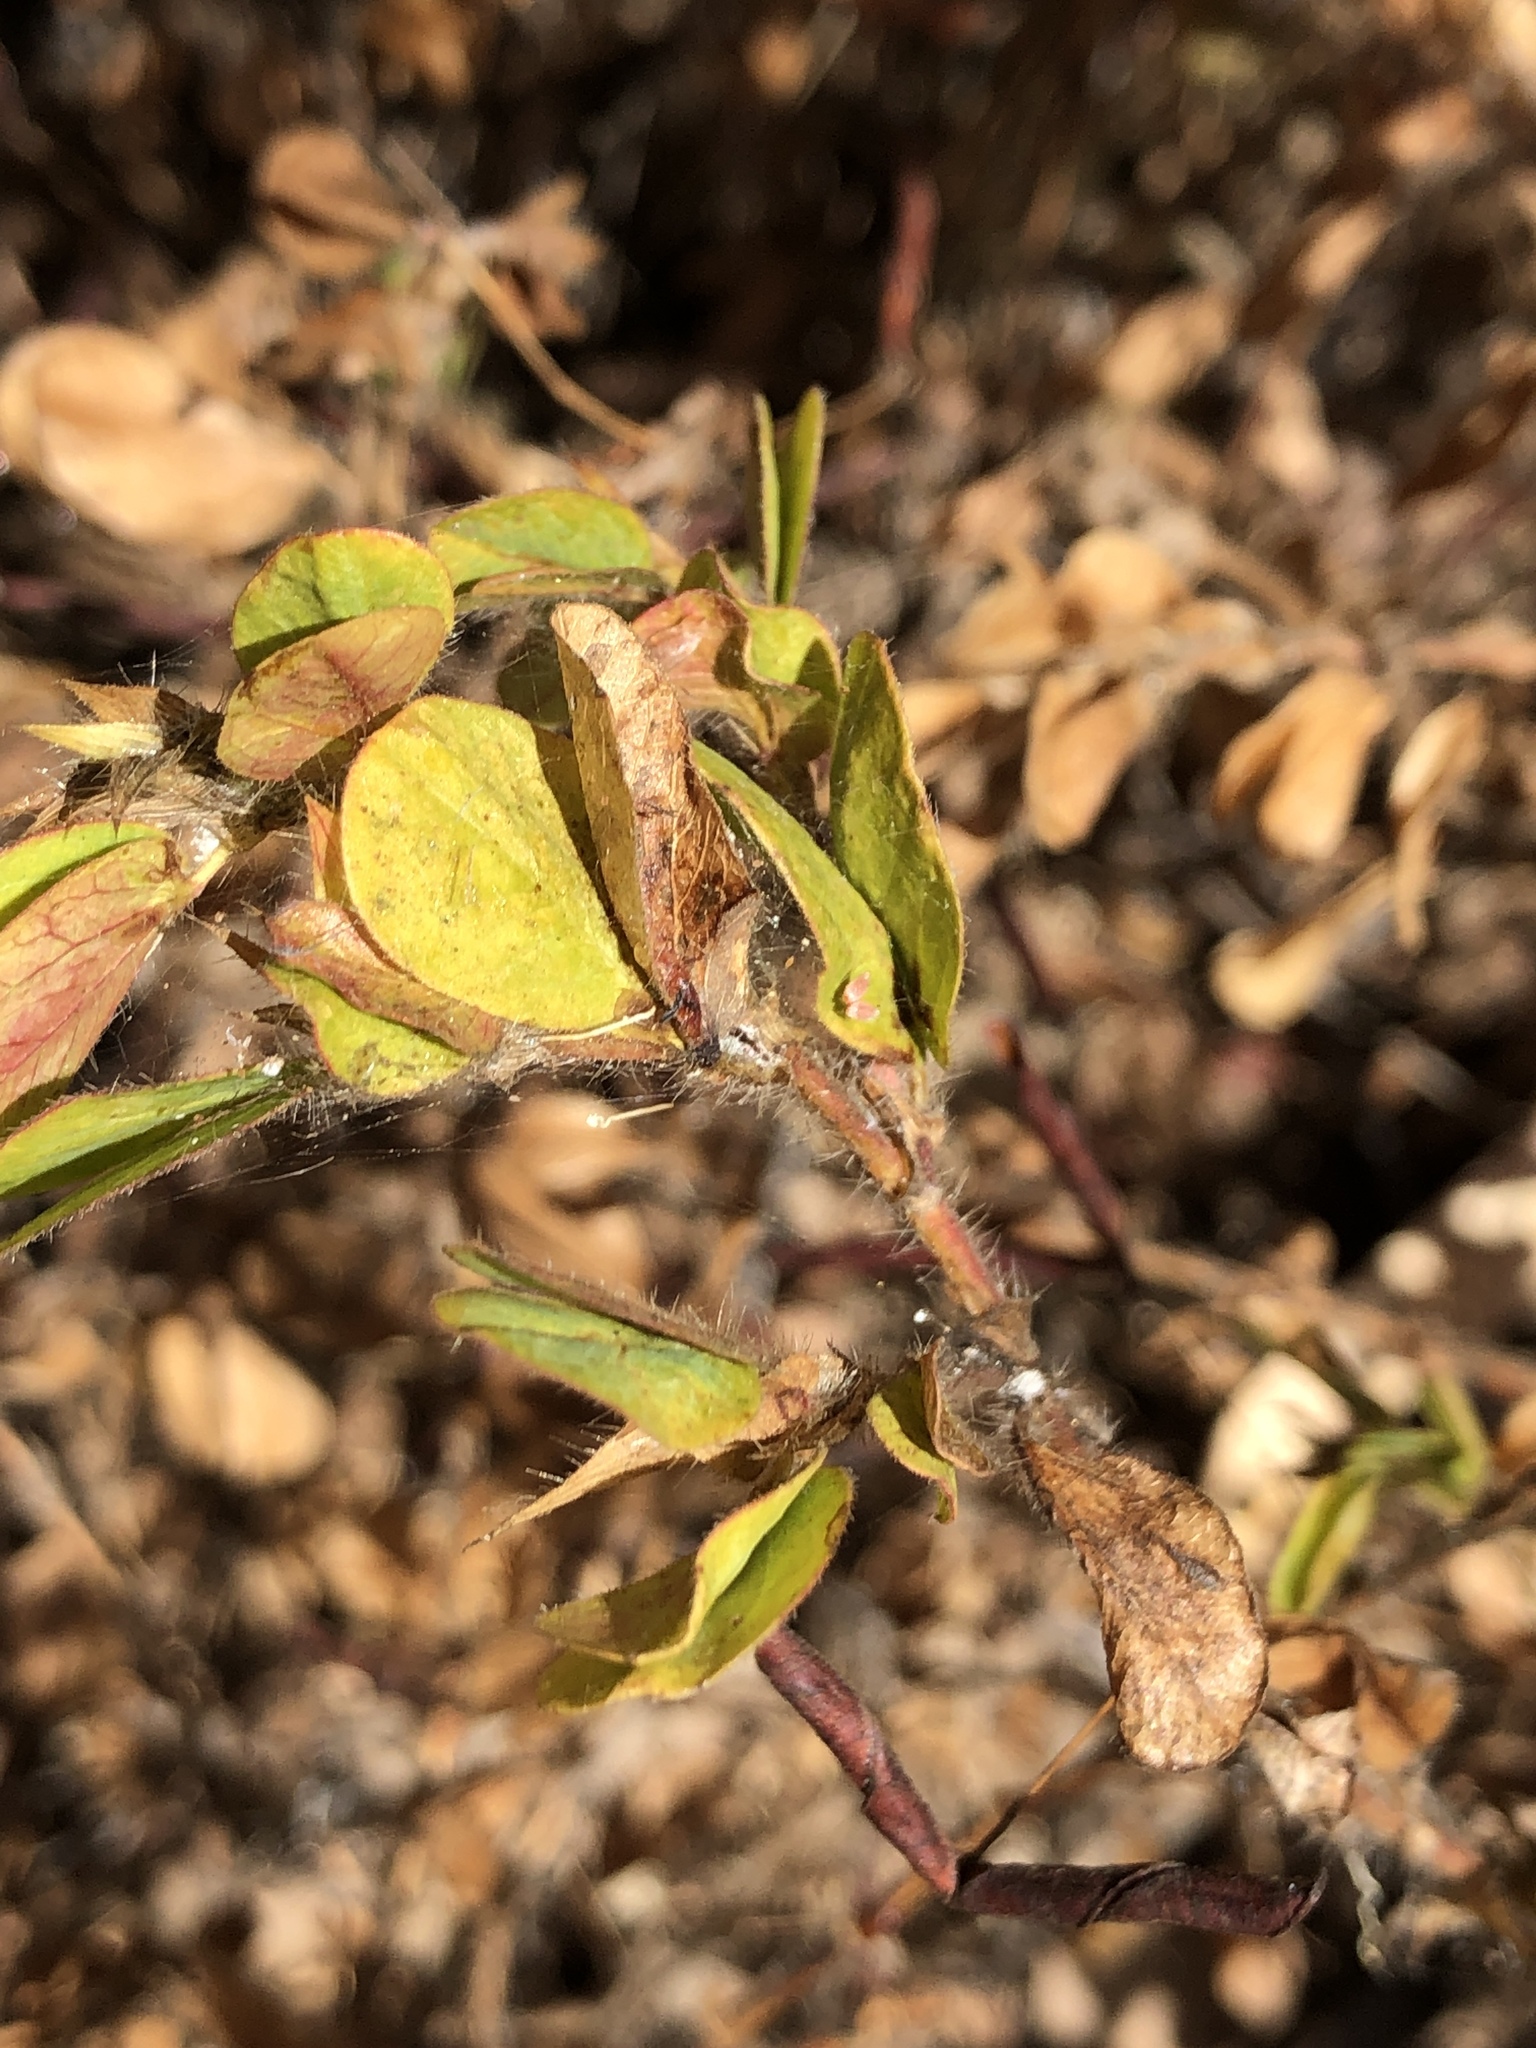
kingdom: Plantae
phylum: Tracheophyta
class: Magnoliopsida
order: Fabales
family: Fabaceae
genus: Chamaecrista
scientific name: Chamaecrista rotundifolia
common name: Round-leaf cassia
